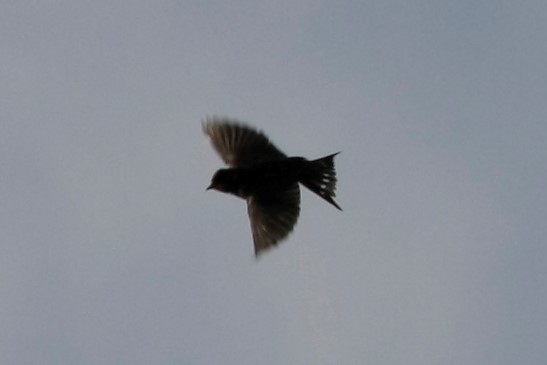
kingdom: Animalia
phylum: Chordata
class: Aves
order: Passeriformes
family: Hirundinidae
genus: Hirundo
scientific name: Hirundo rustica
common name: Barn swallow
